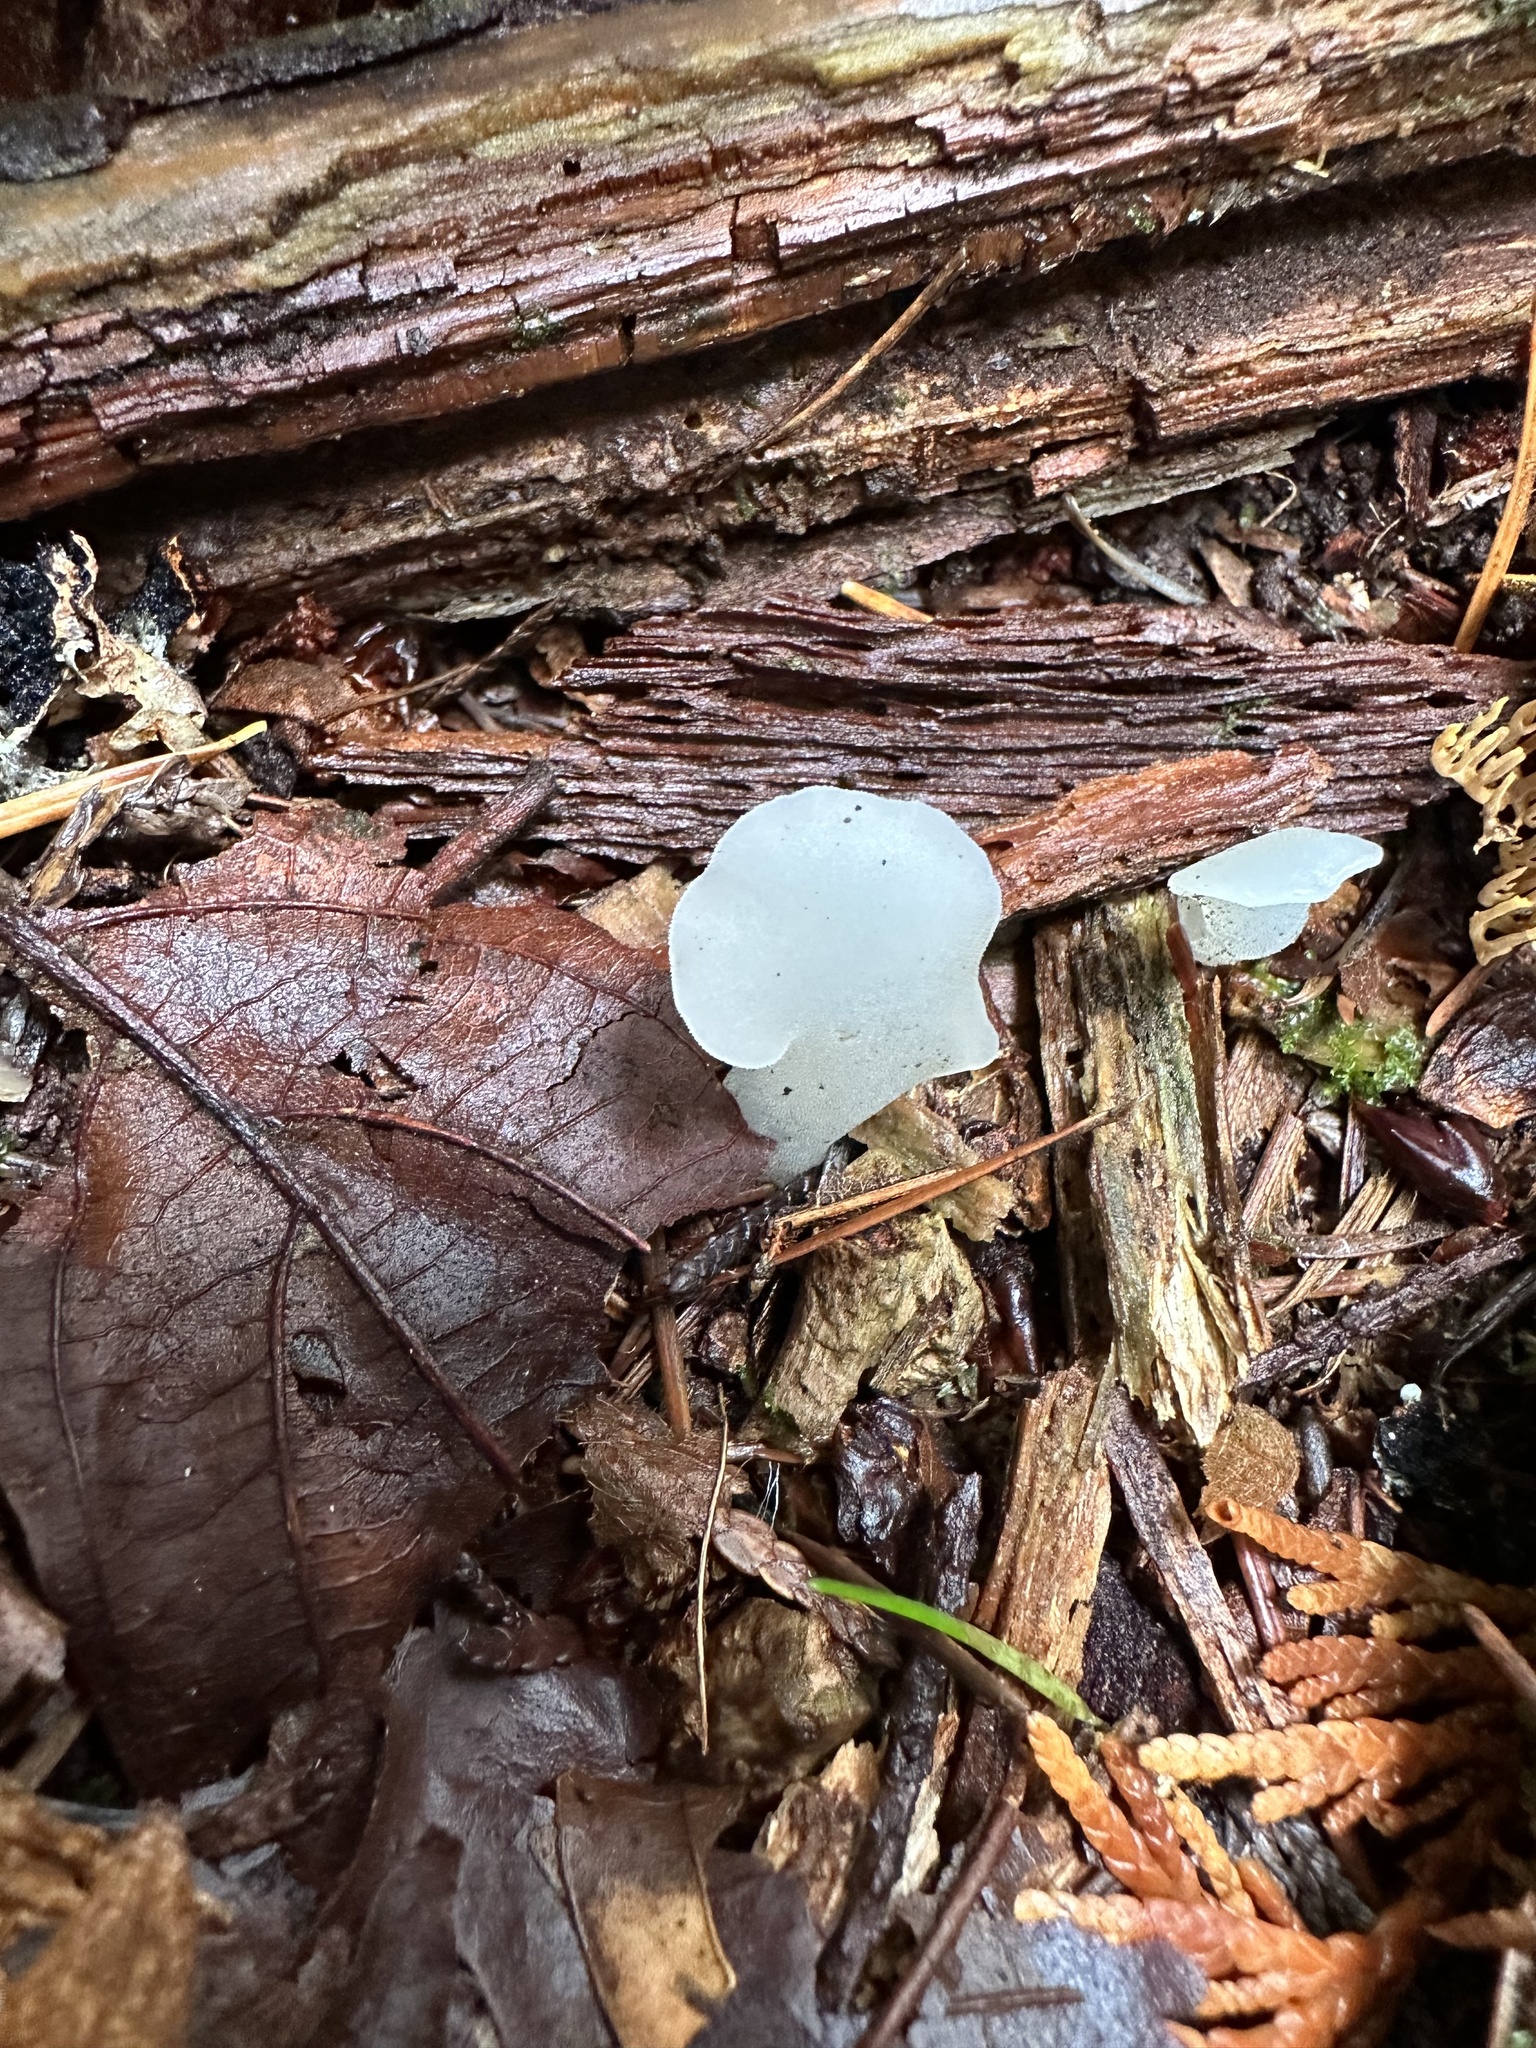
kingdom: Fungi
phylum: Basidiomycota
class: Agaricomycetes
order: Auriculariales
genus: Pseudohydnum
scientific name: Pseudohydnum gelatinosum
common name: Jelly tongue
